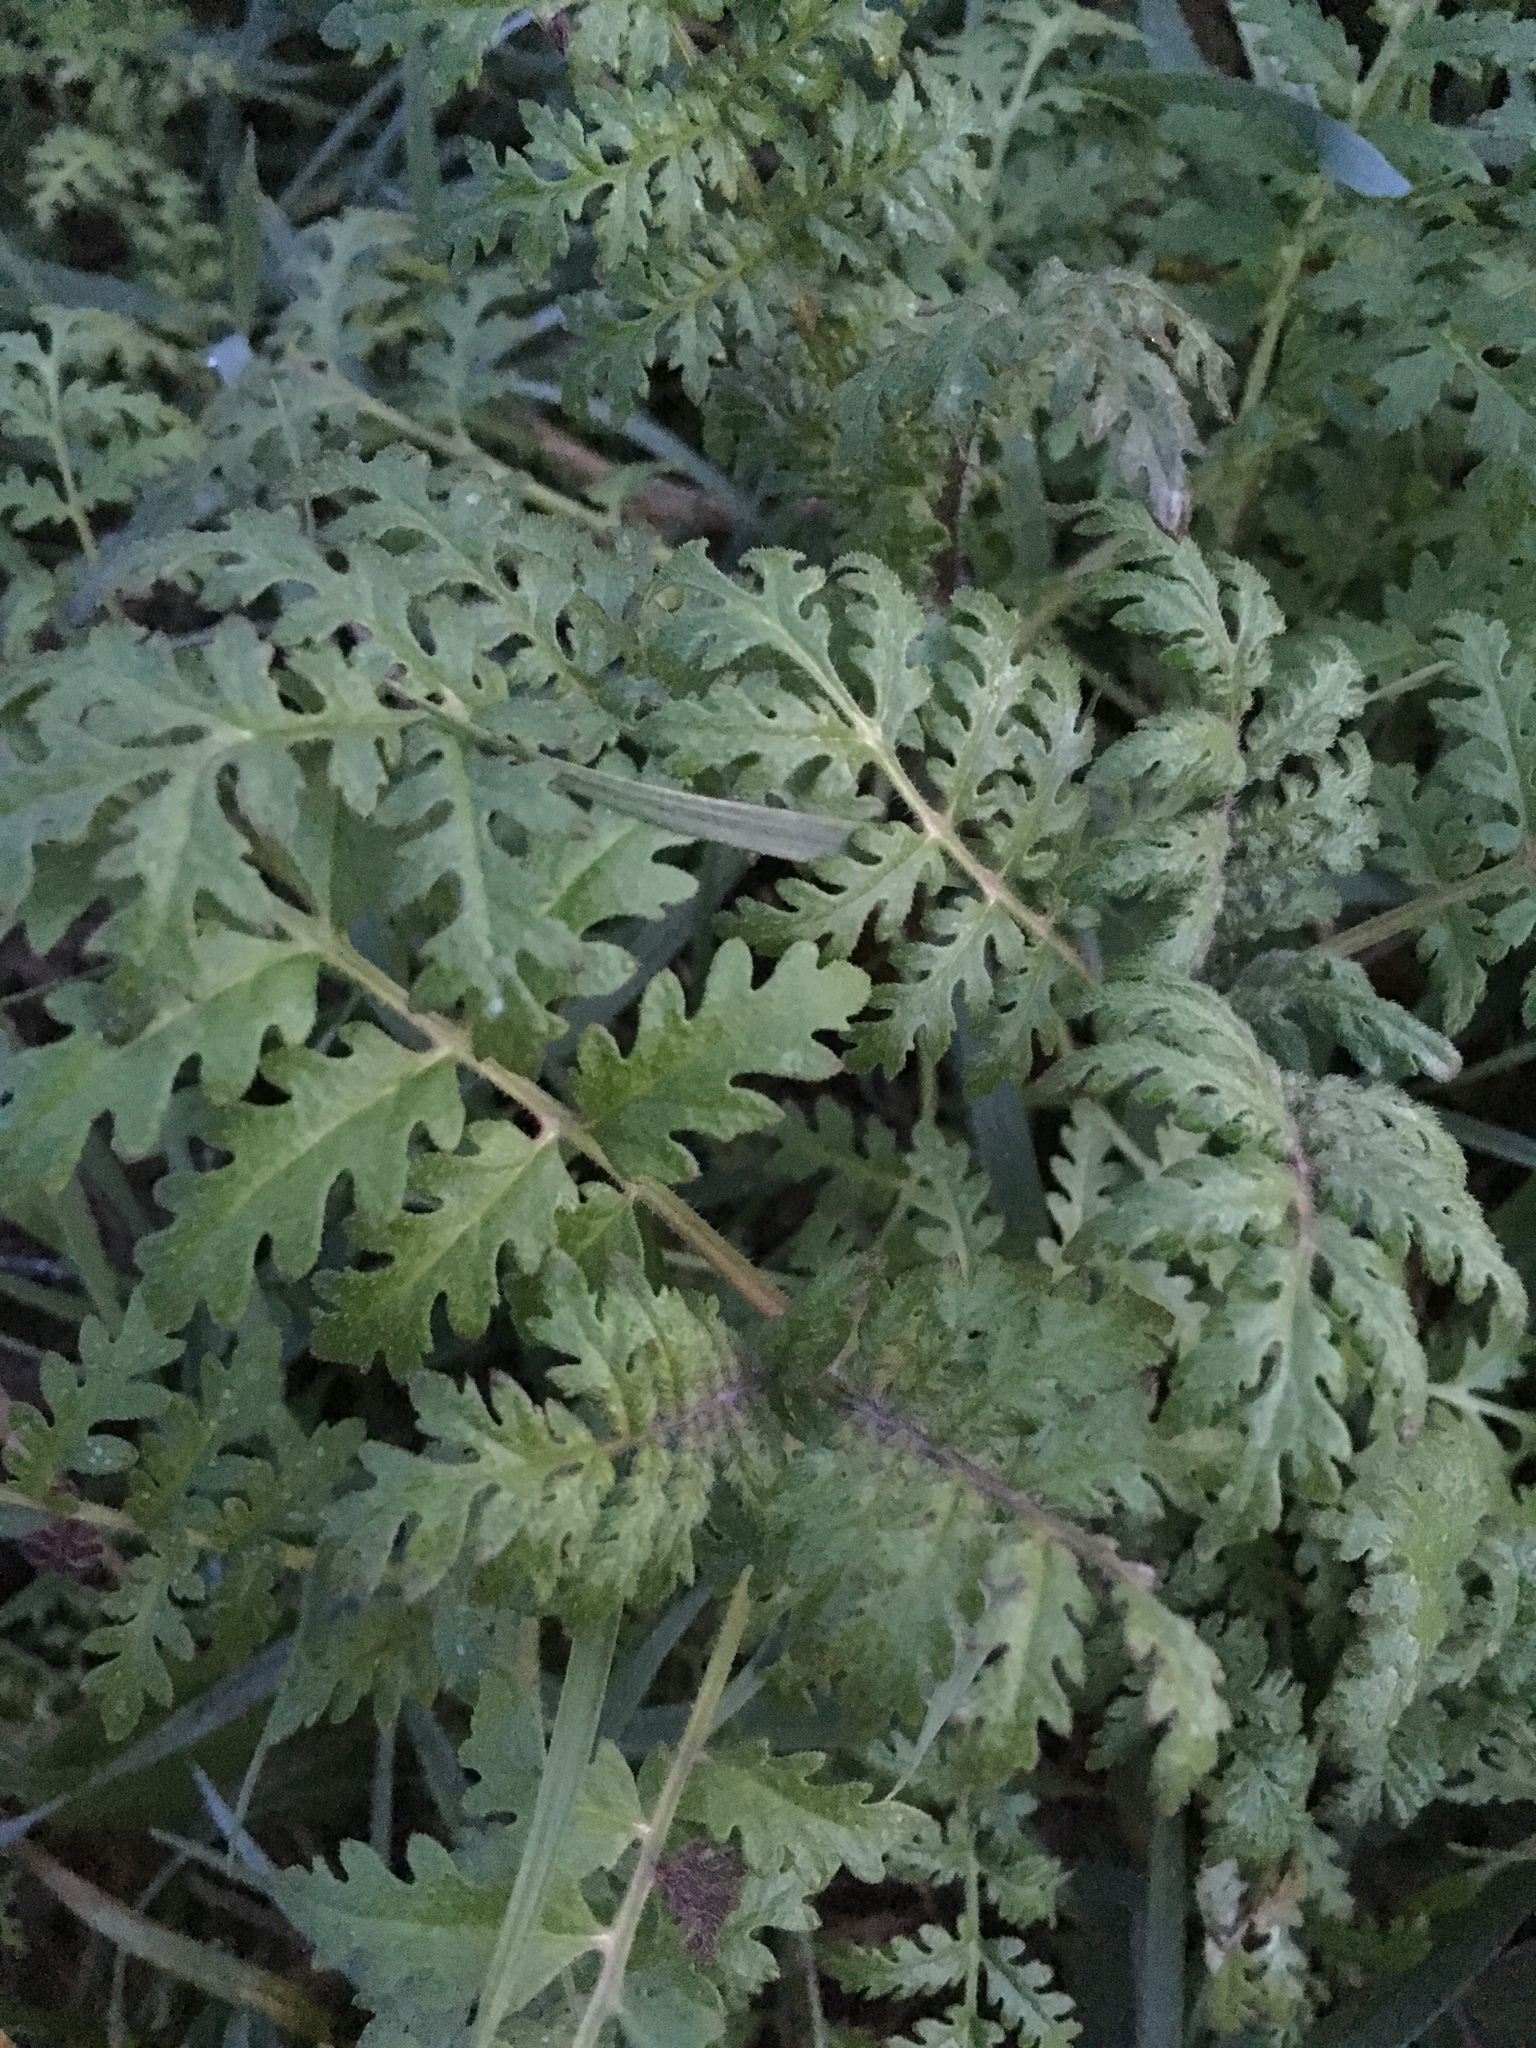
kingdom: Plantae
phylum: Tracheophyta
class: Magnoliopsida
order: Boraginales
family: Hydrophyllaceae
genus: Phacelia
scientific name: Phacelia tanacetifolia
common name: Phacelia
